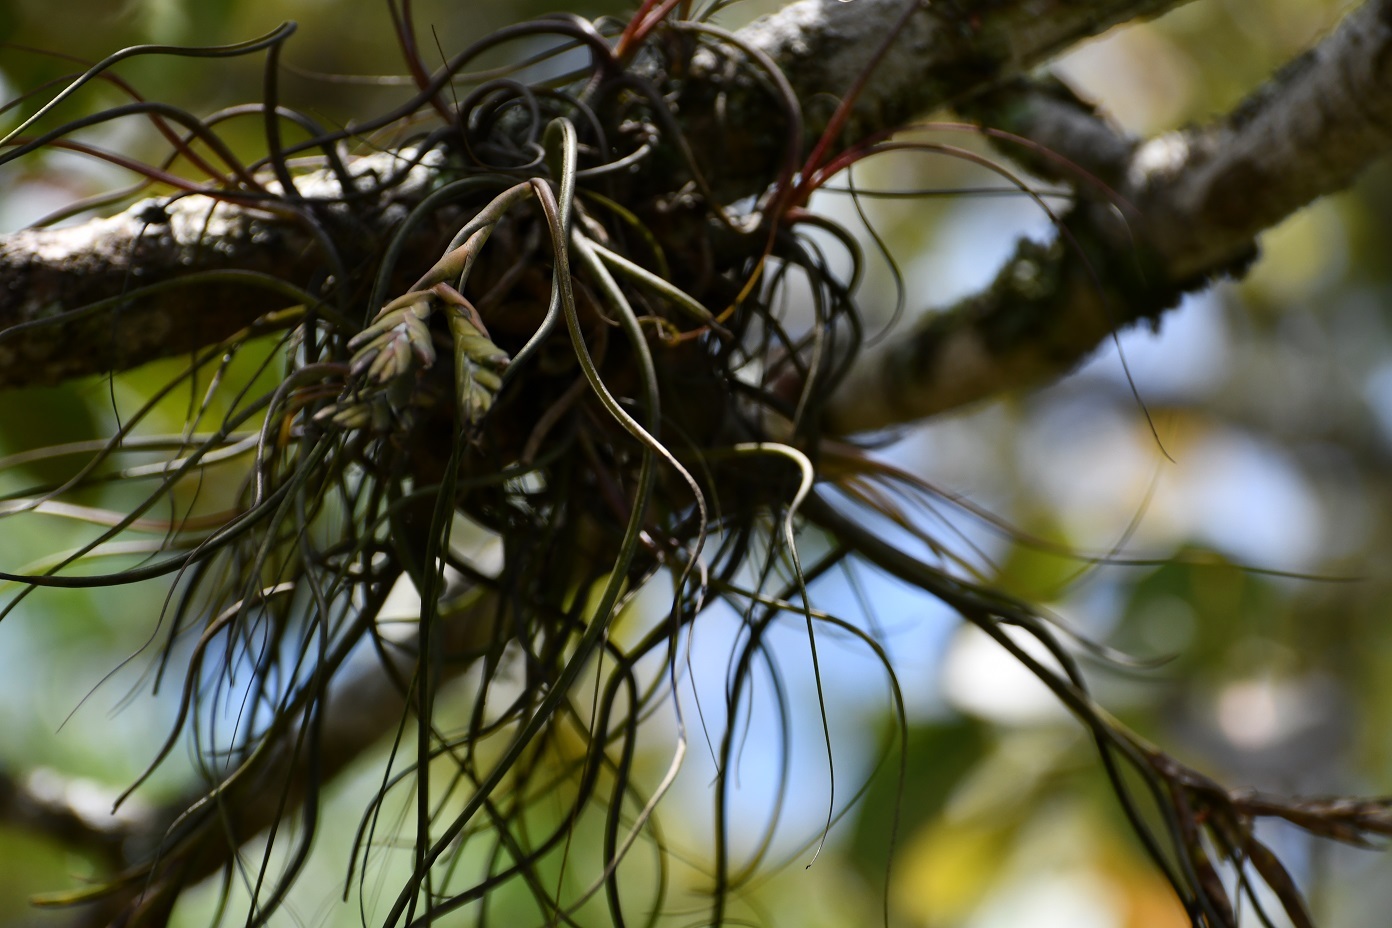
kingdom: Plantae
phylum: Tracheophyta
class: Liliopsida
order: Poales
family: Bromeliaceae
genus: Tillandsia
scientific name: Tillandsia butzii
